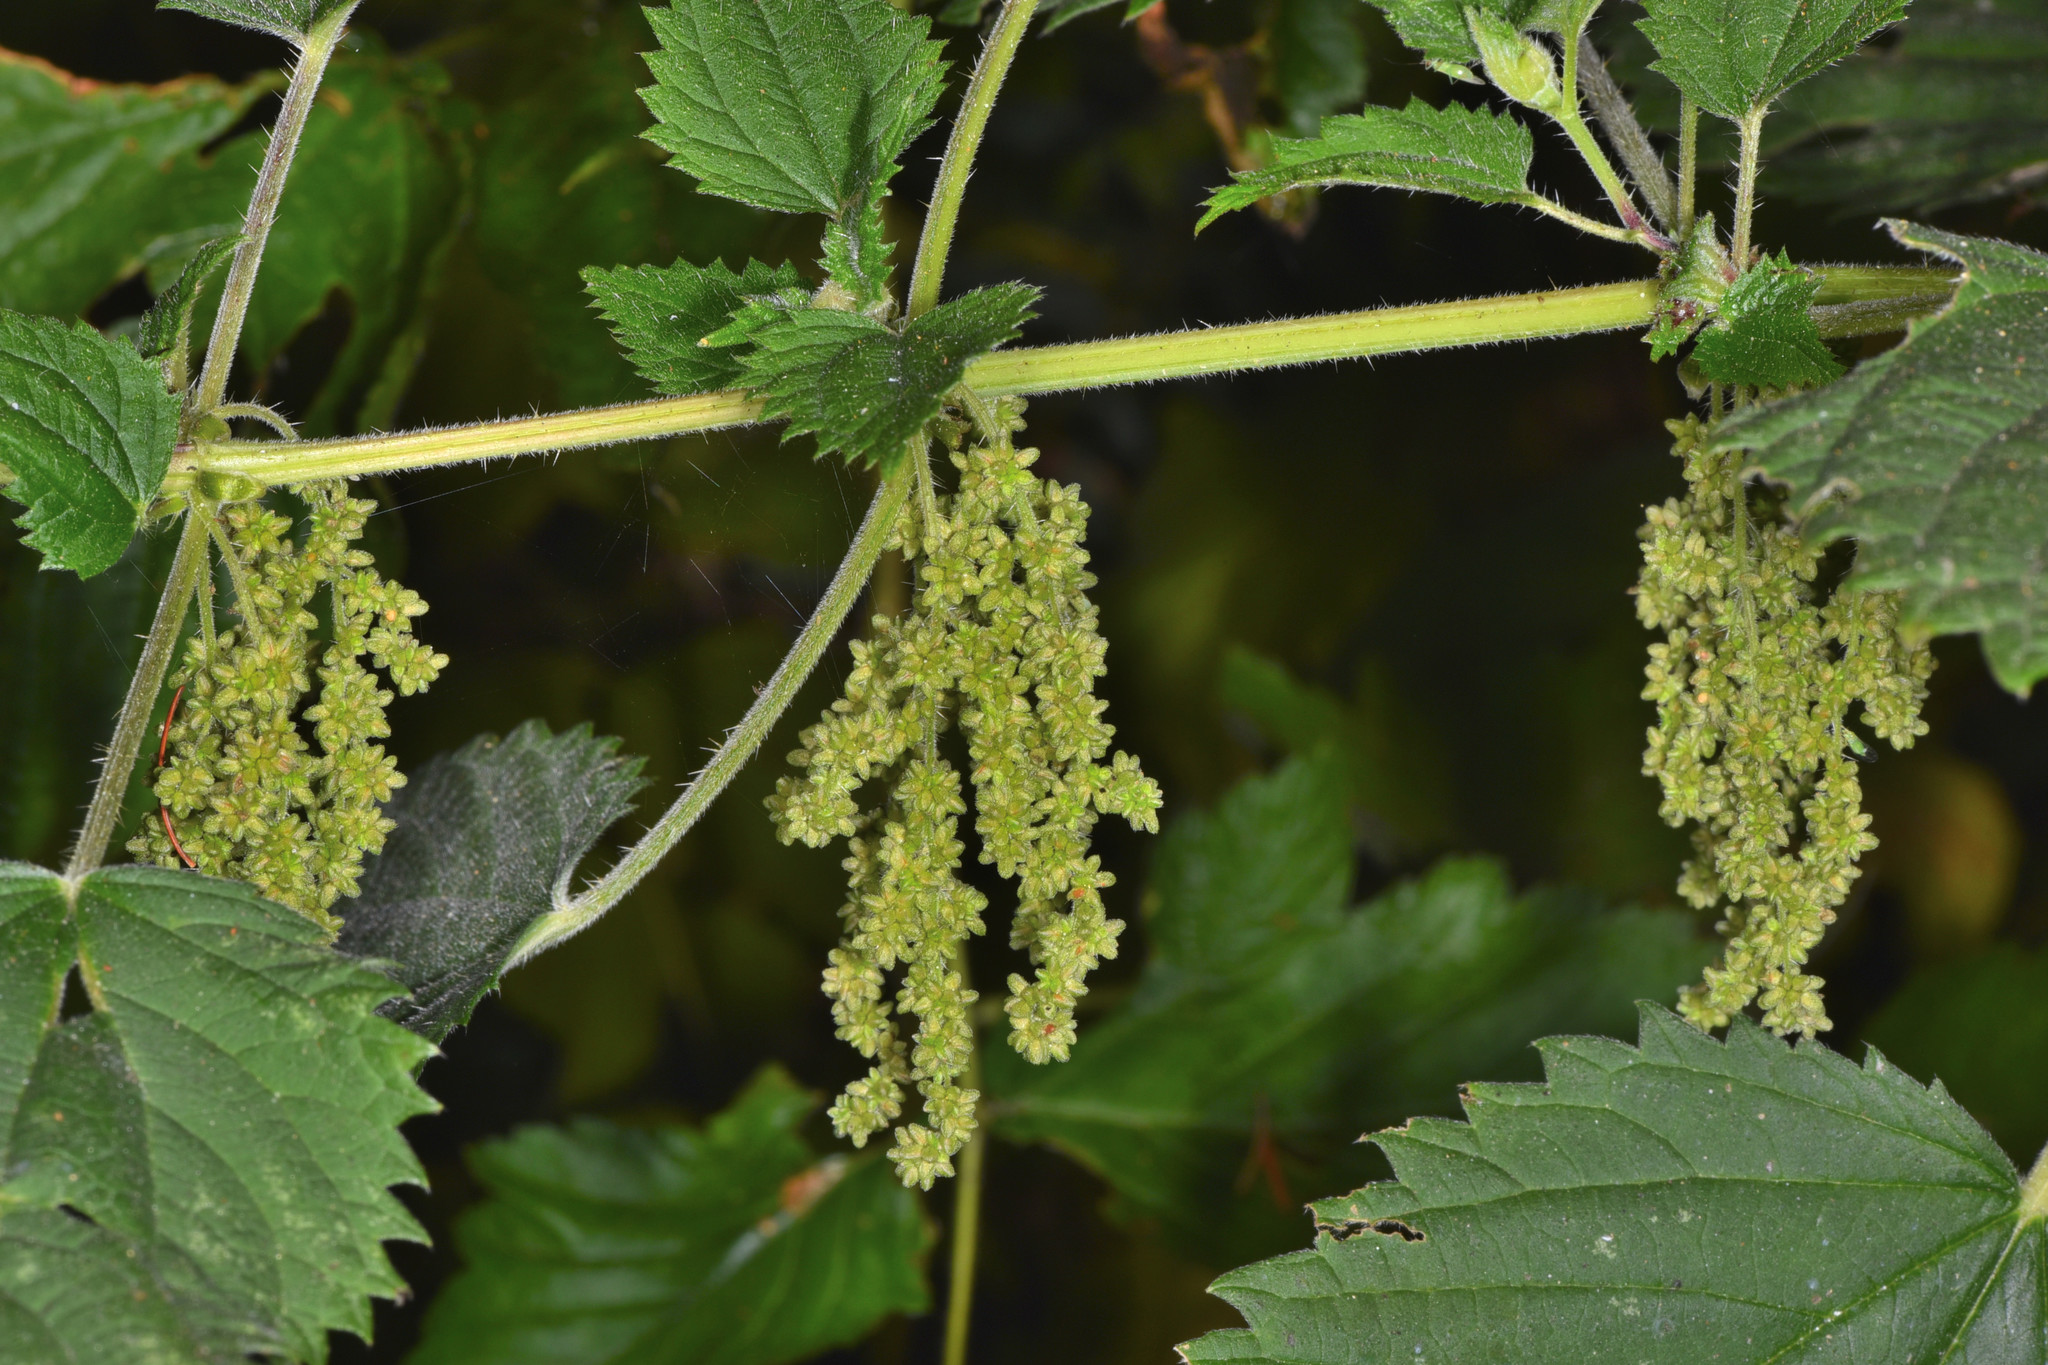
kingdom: Plantae
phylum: Tracheophyta
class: Magnoliopsida
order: Rosales
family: Urticaceae
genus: Urtica
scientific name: Urtica gracilis
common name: Slender stinging nettle
